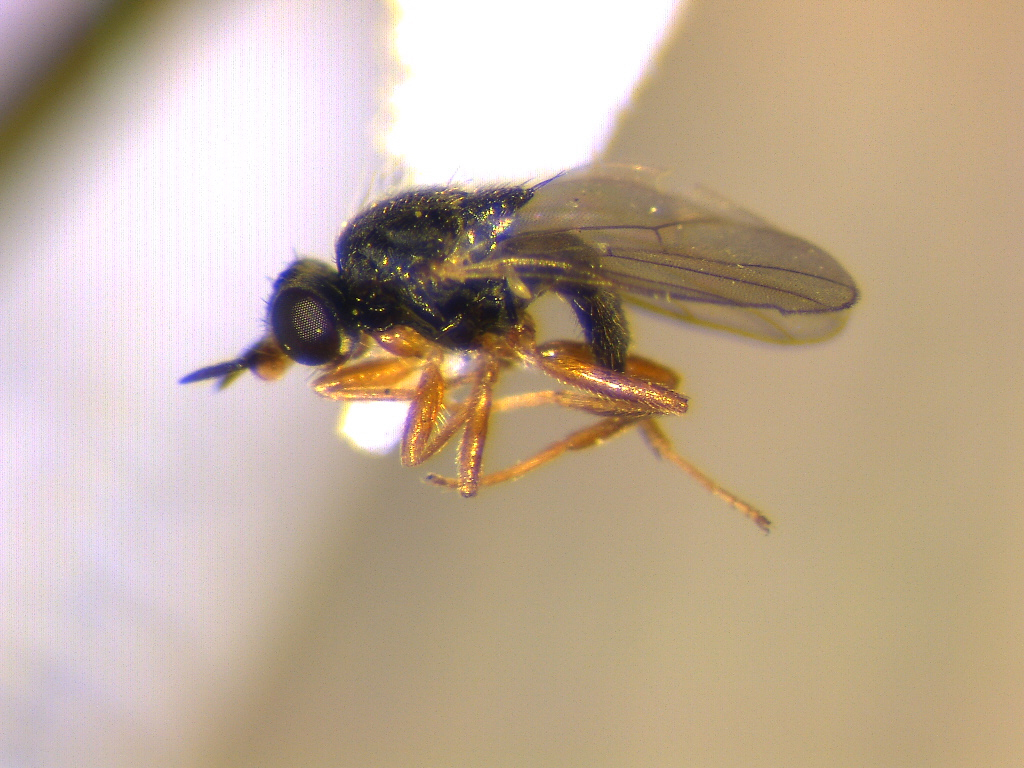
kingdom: Animalia
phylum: Arthropoda
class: Insecta
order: Diptera
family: Chloropidae
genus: Ceratobarys
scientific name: Ceratobarys costata
